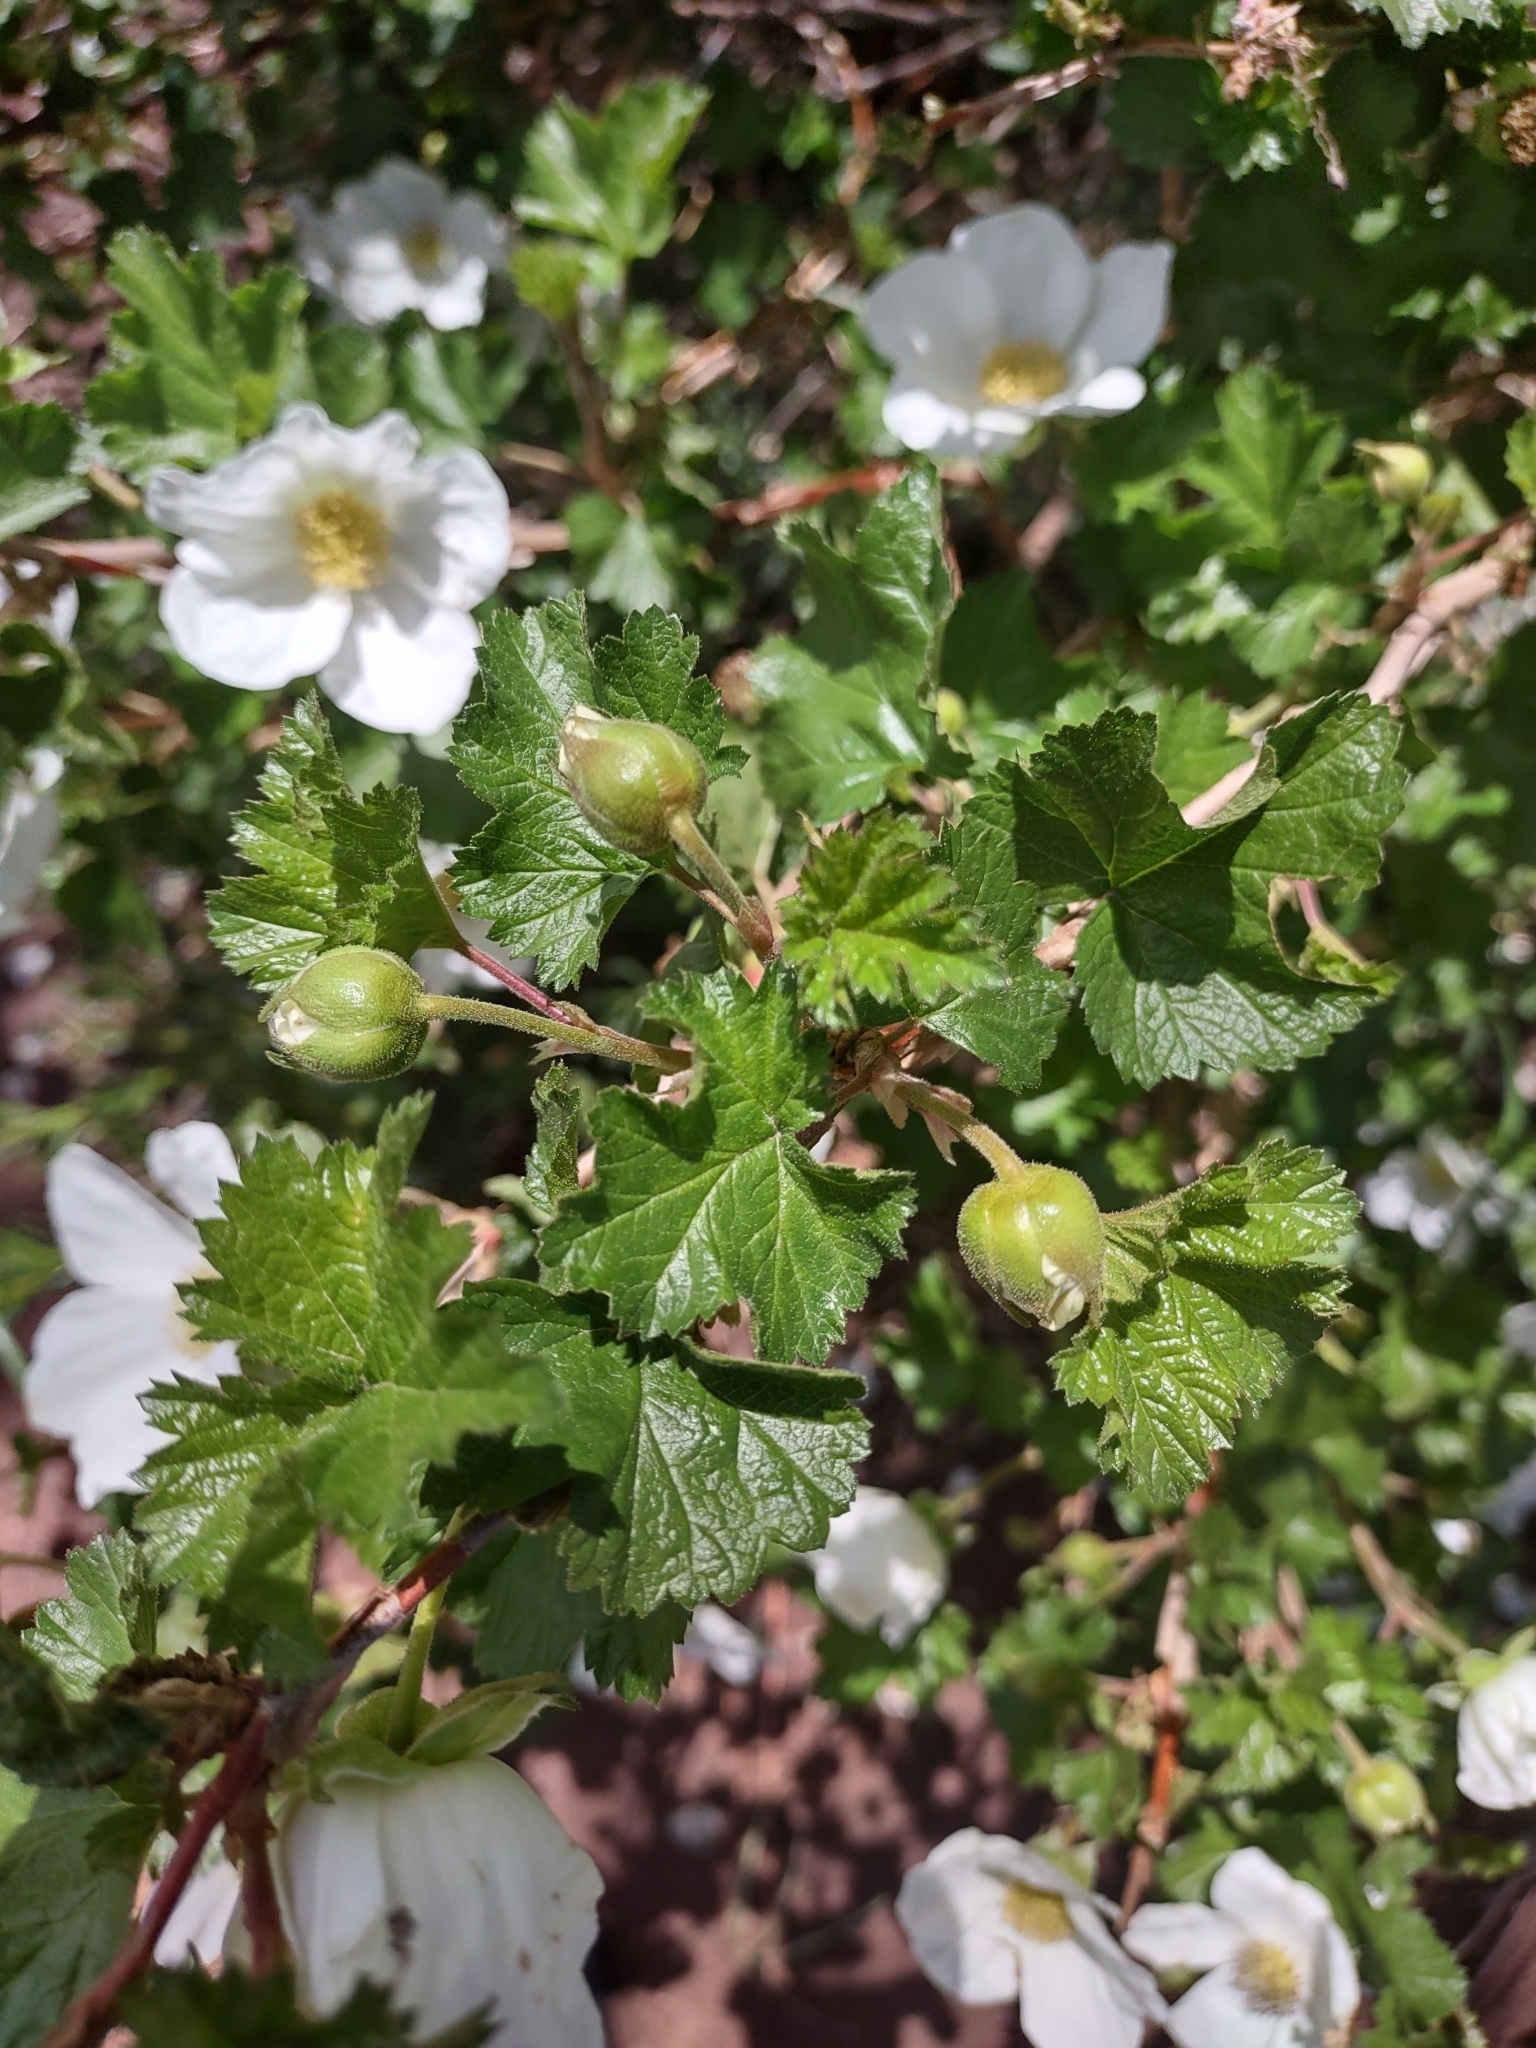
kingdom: Plantae
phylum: Tracheophyta
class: Magnoliopsida
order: Rosales
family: Rosaceae
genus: Rubus
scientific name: Rubus deliciosus
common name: Rocky mountain raspberry
